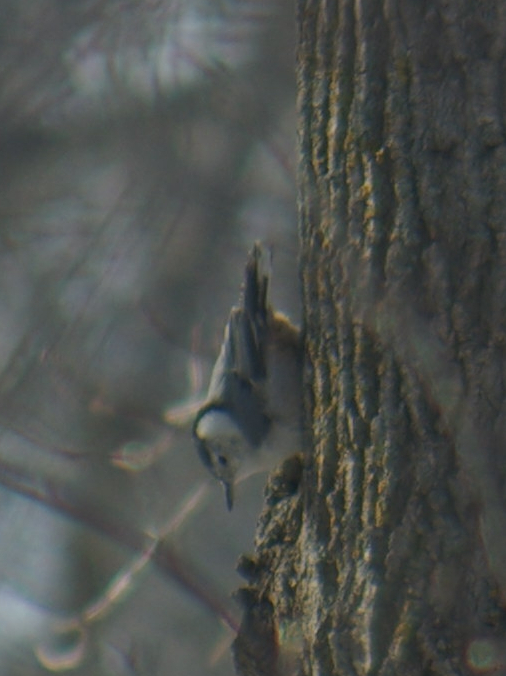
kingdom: Animalia
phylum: Chordata
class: Aves
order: Passeriformes
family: Sittidae
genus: Sitta
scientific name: Sitta carolinensis
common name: White-breasted nuthatch
